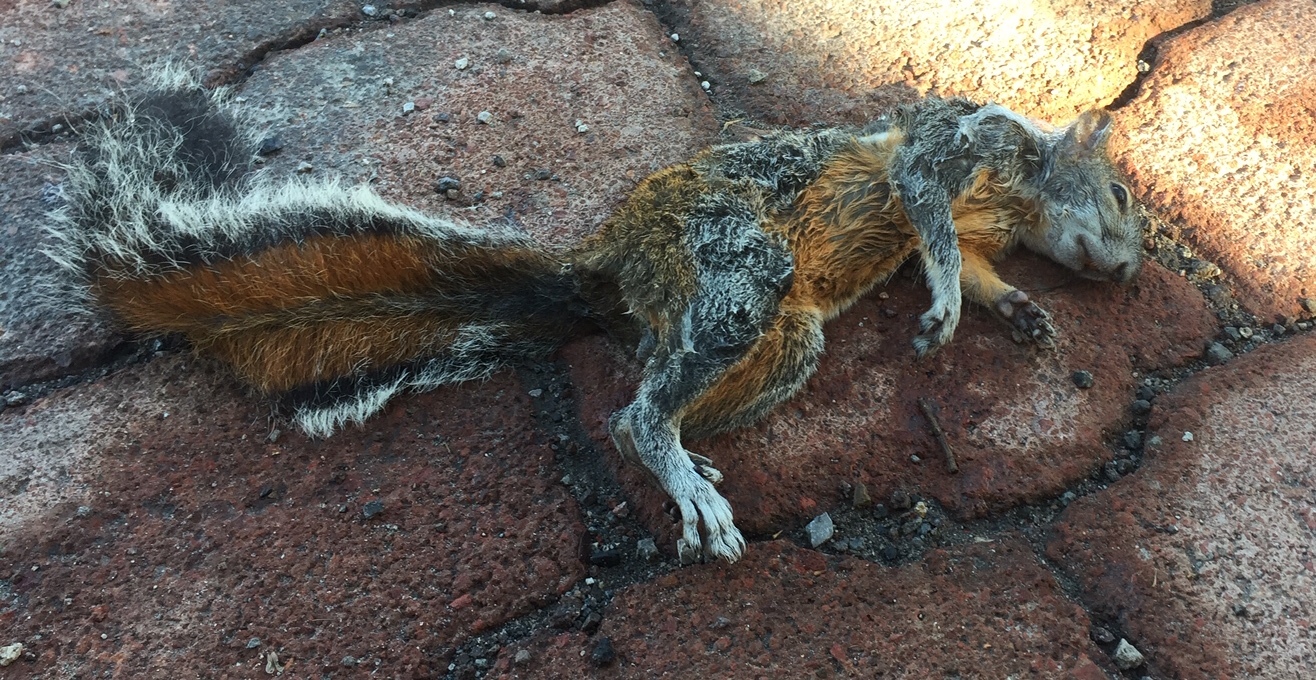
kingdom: Animalia
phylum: Chordata
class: Mammalia
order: Rodentia
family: Sciuridae
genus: Sciurus
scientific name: Sciurus aureogaster
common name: Red-bellied squirrel
